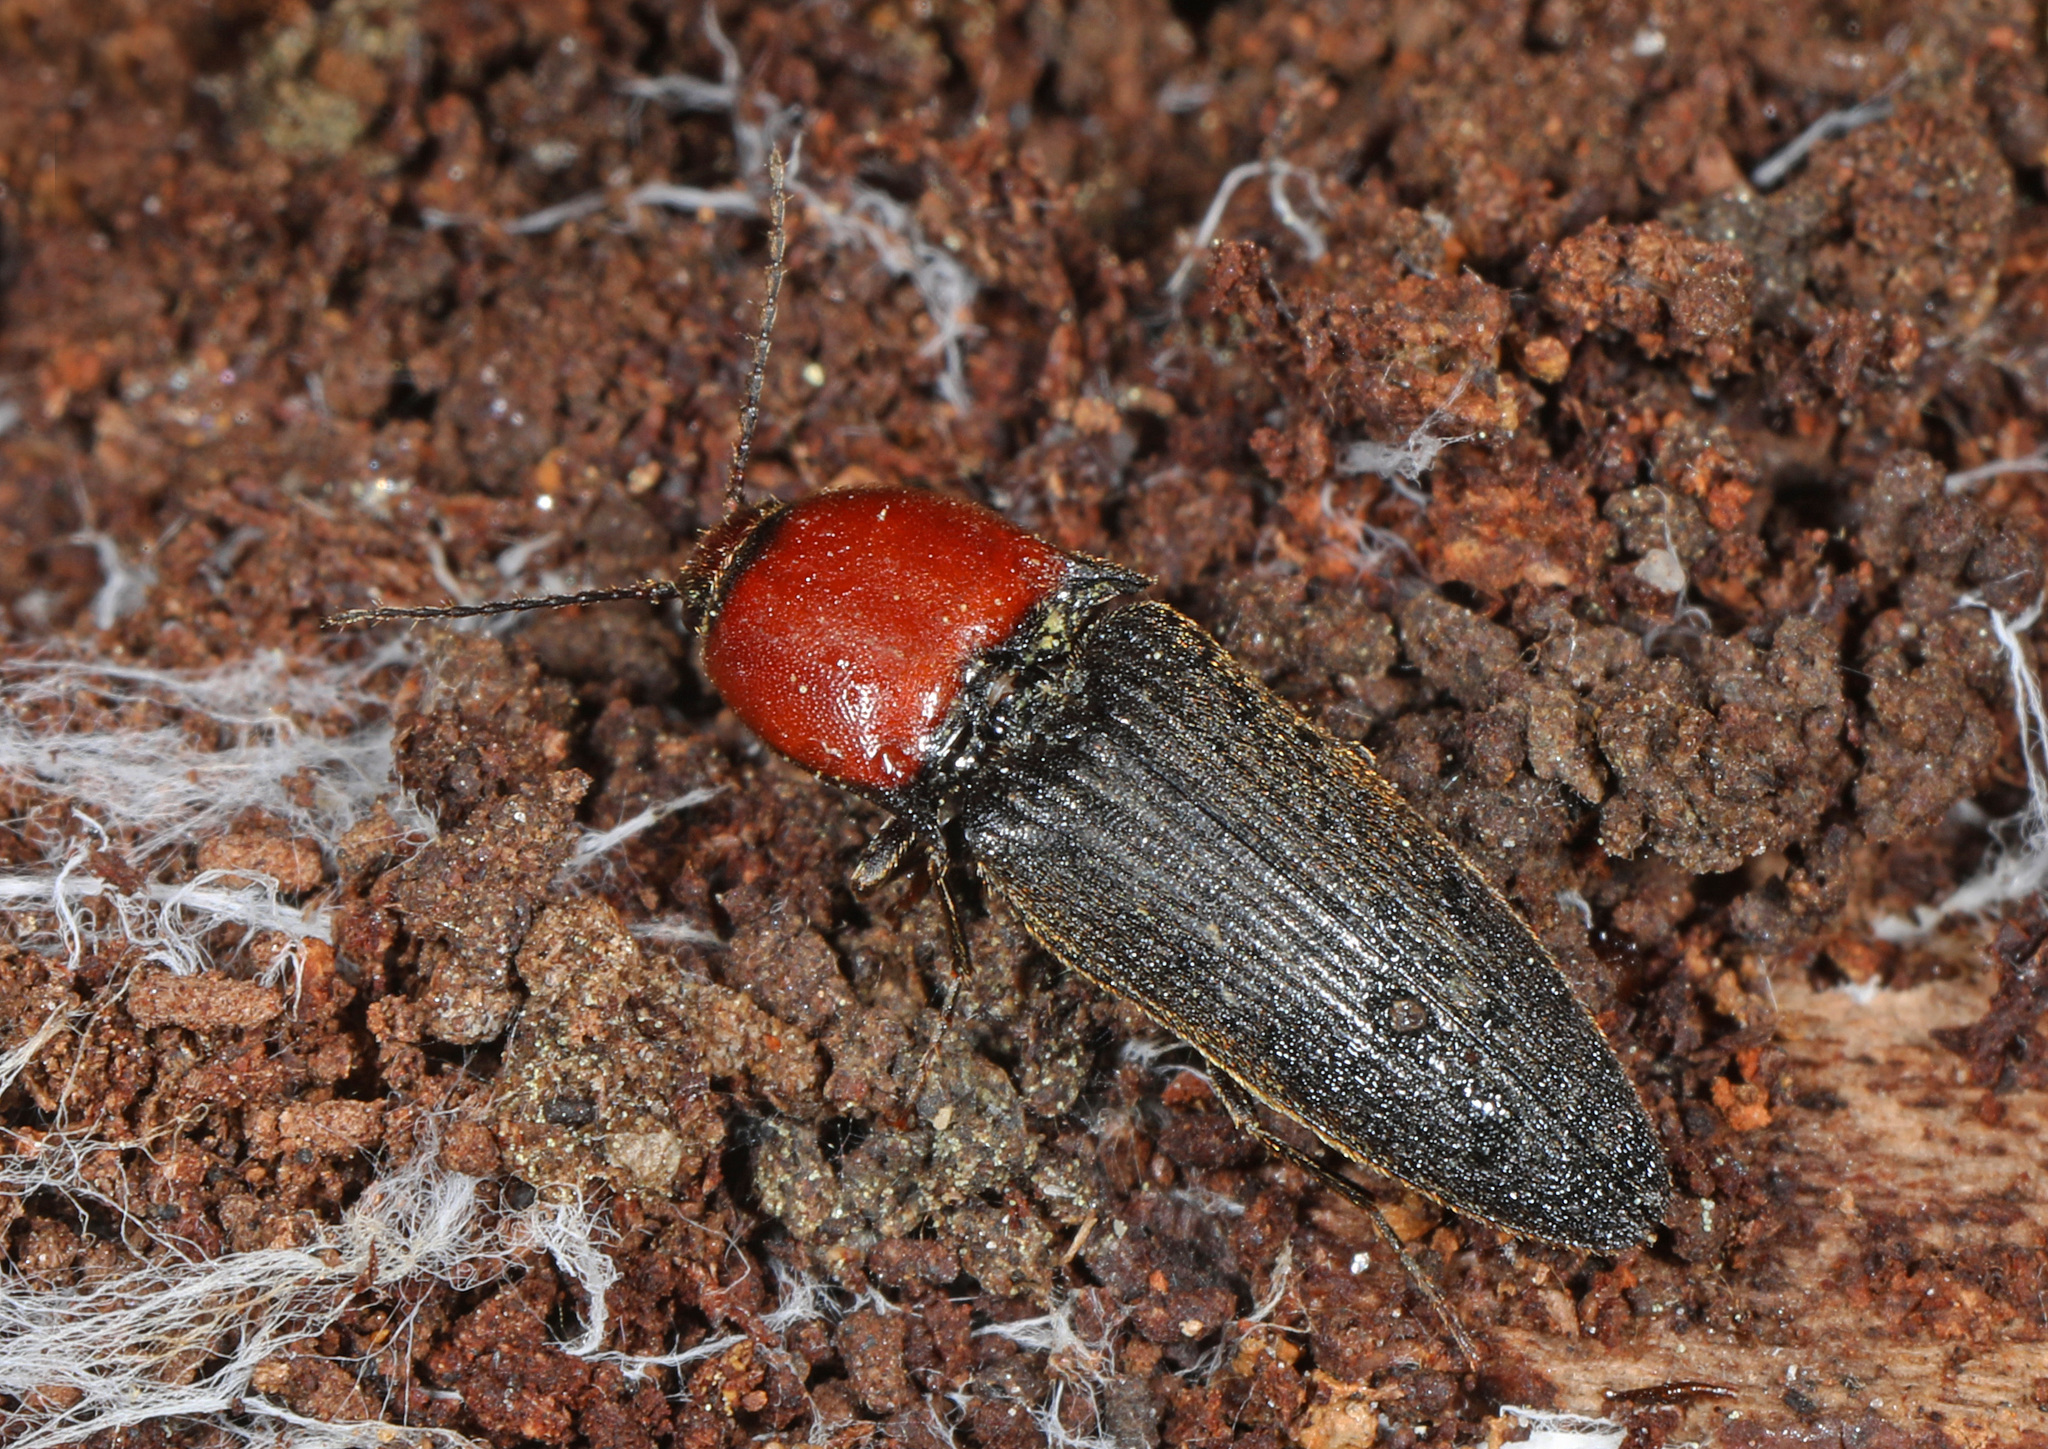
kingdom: Animalia
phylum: Arthropoda
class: Insecta
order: Coleoptera
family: Elateridae
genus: Ampedus
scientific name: Ampedus rubricollis
